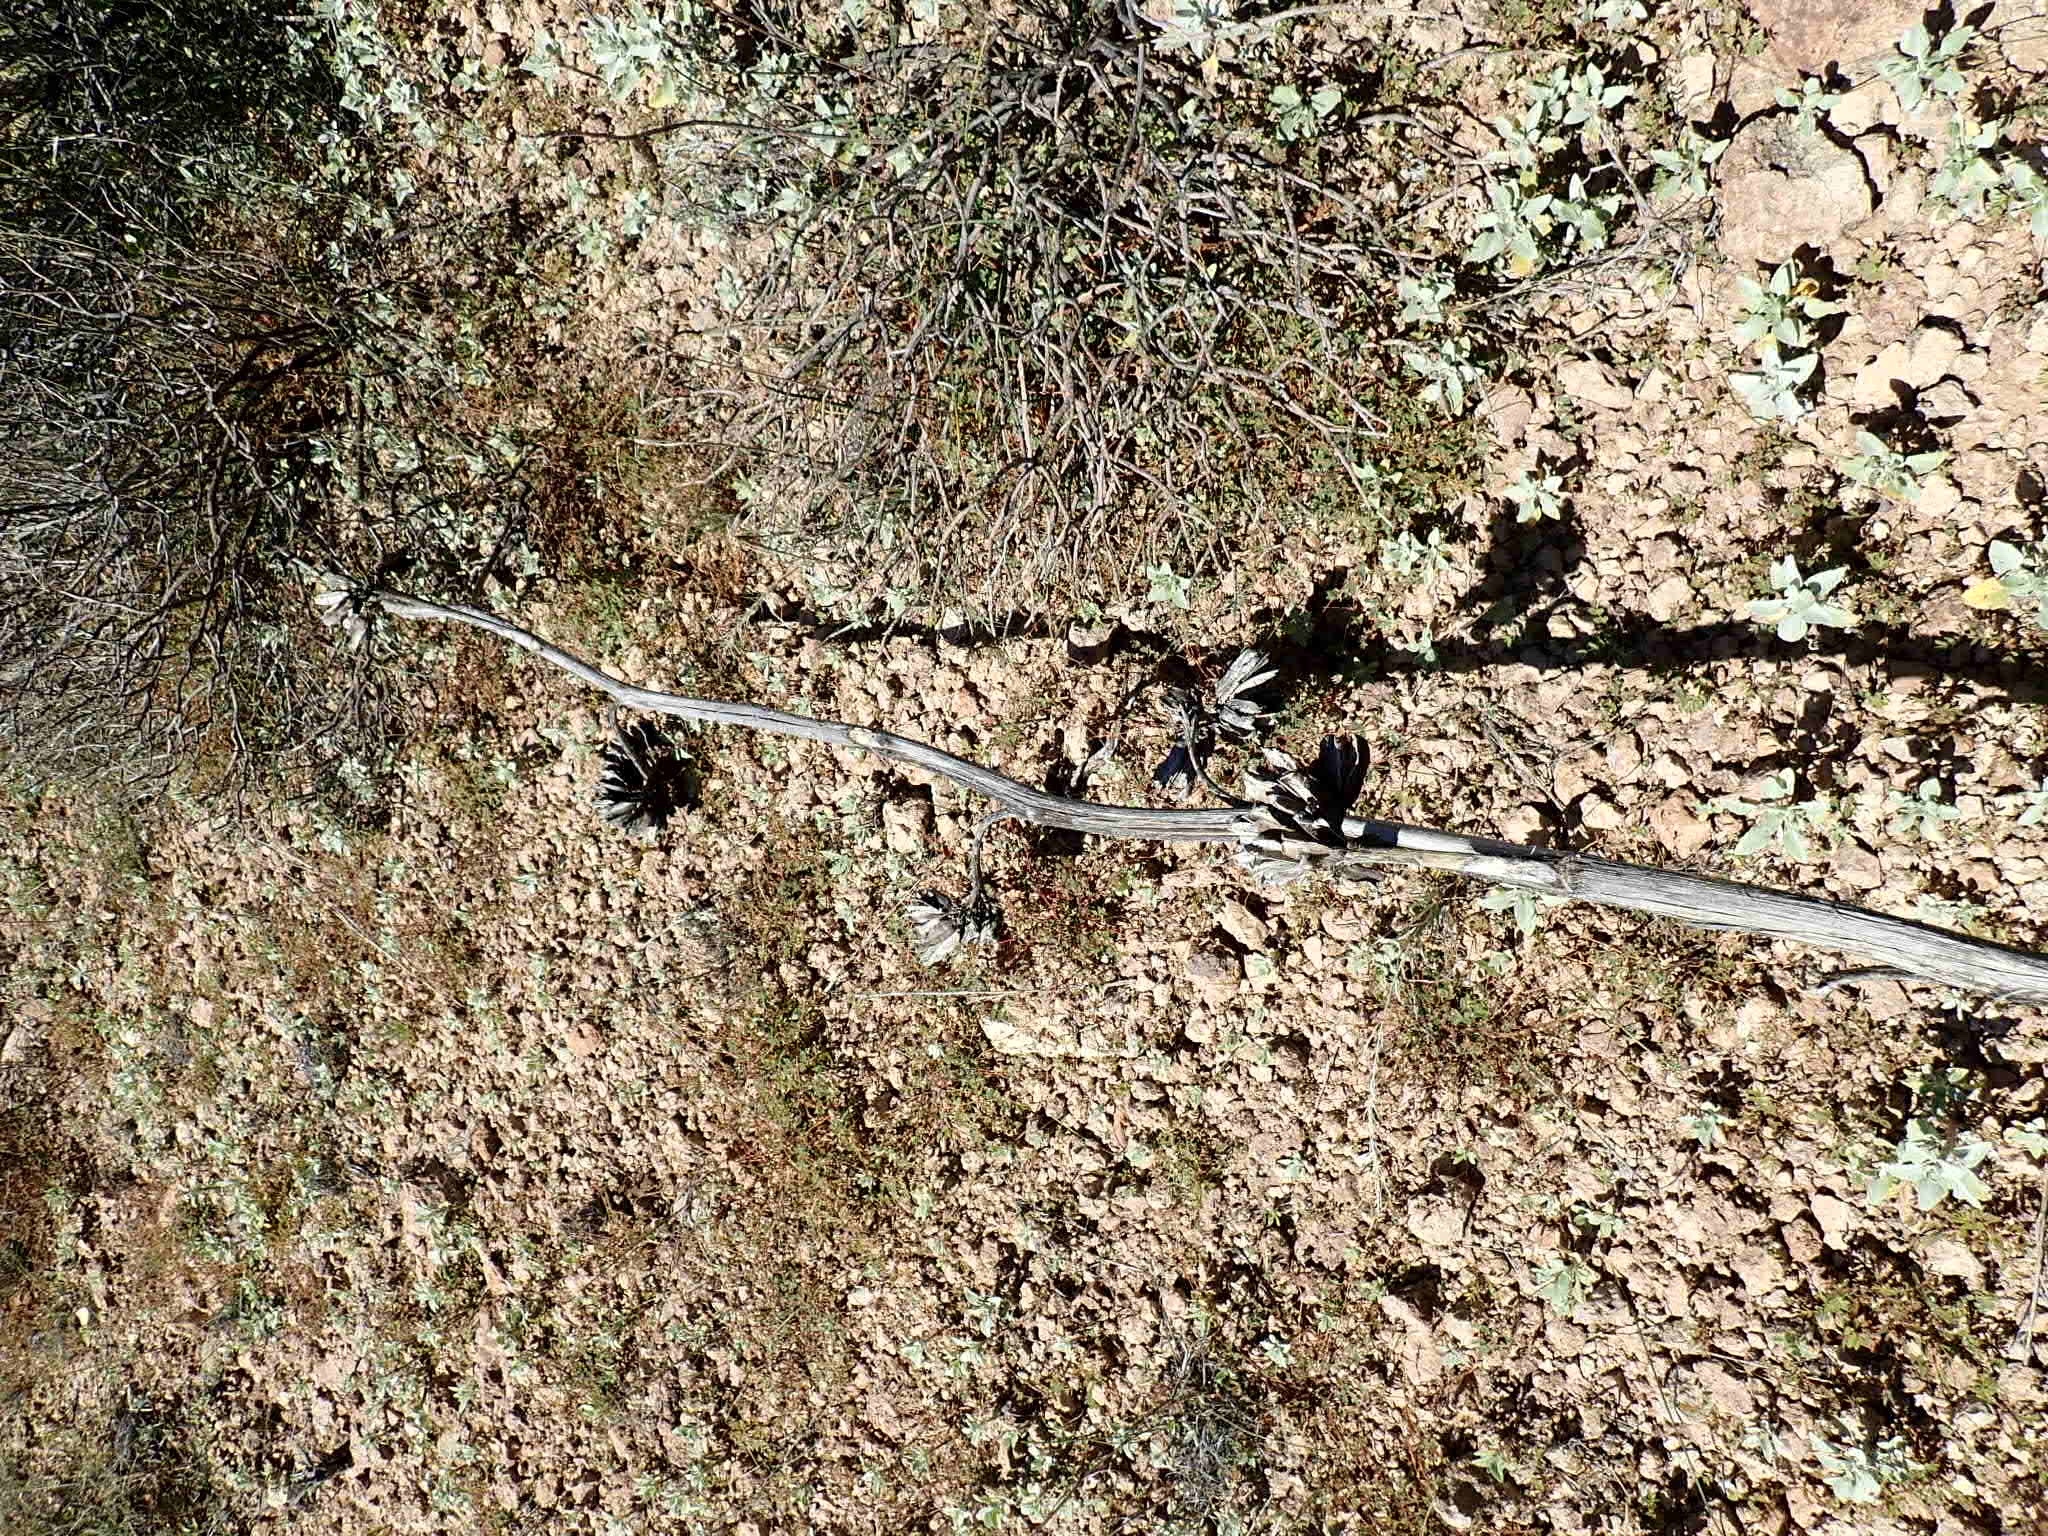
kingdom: Plantae
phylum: Tracheophyta
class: Liliopsida
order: Asparagales
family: Asparagaceae
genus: Agave
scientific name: Agave simplex
